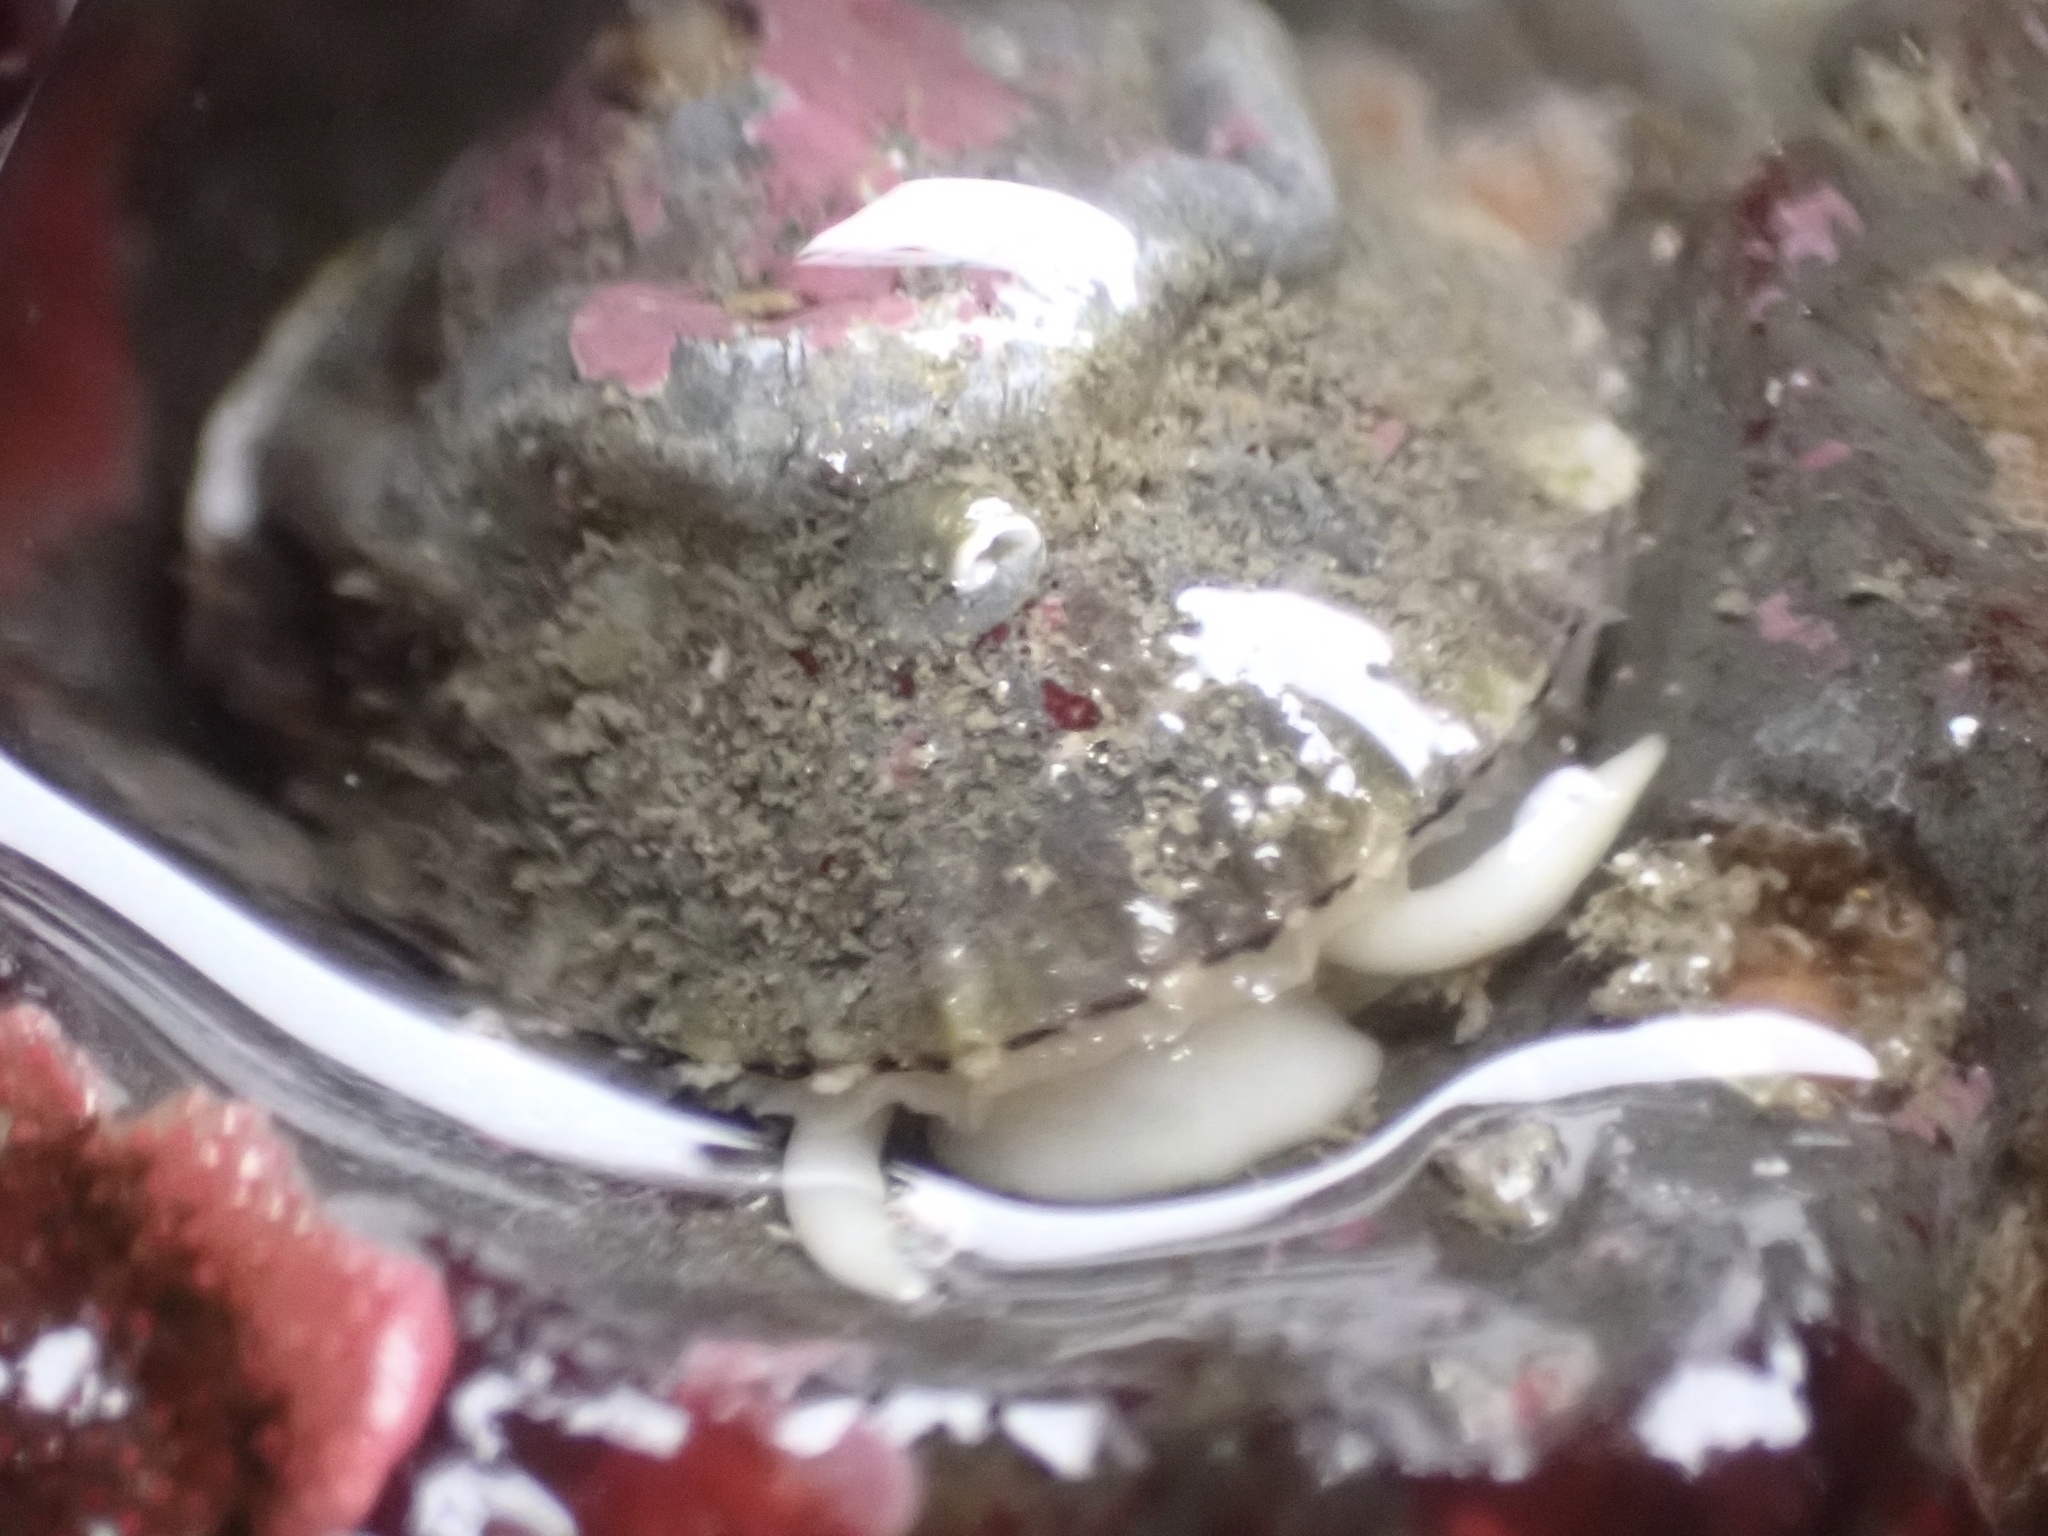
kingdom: Animalia
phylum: Mollusca
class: Gastropoda
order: Lepetellida
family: Fissurellidae
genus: Diodora
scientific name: Diodora aspera
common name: Rough keyhole limpet
